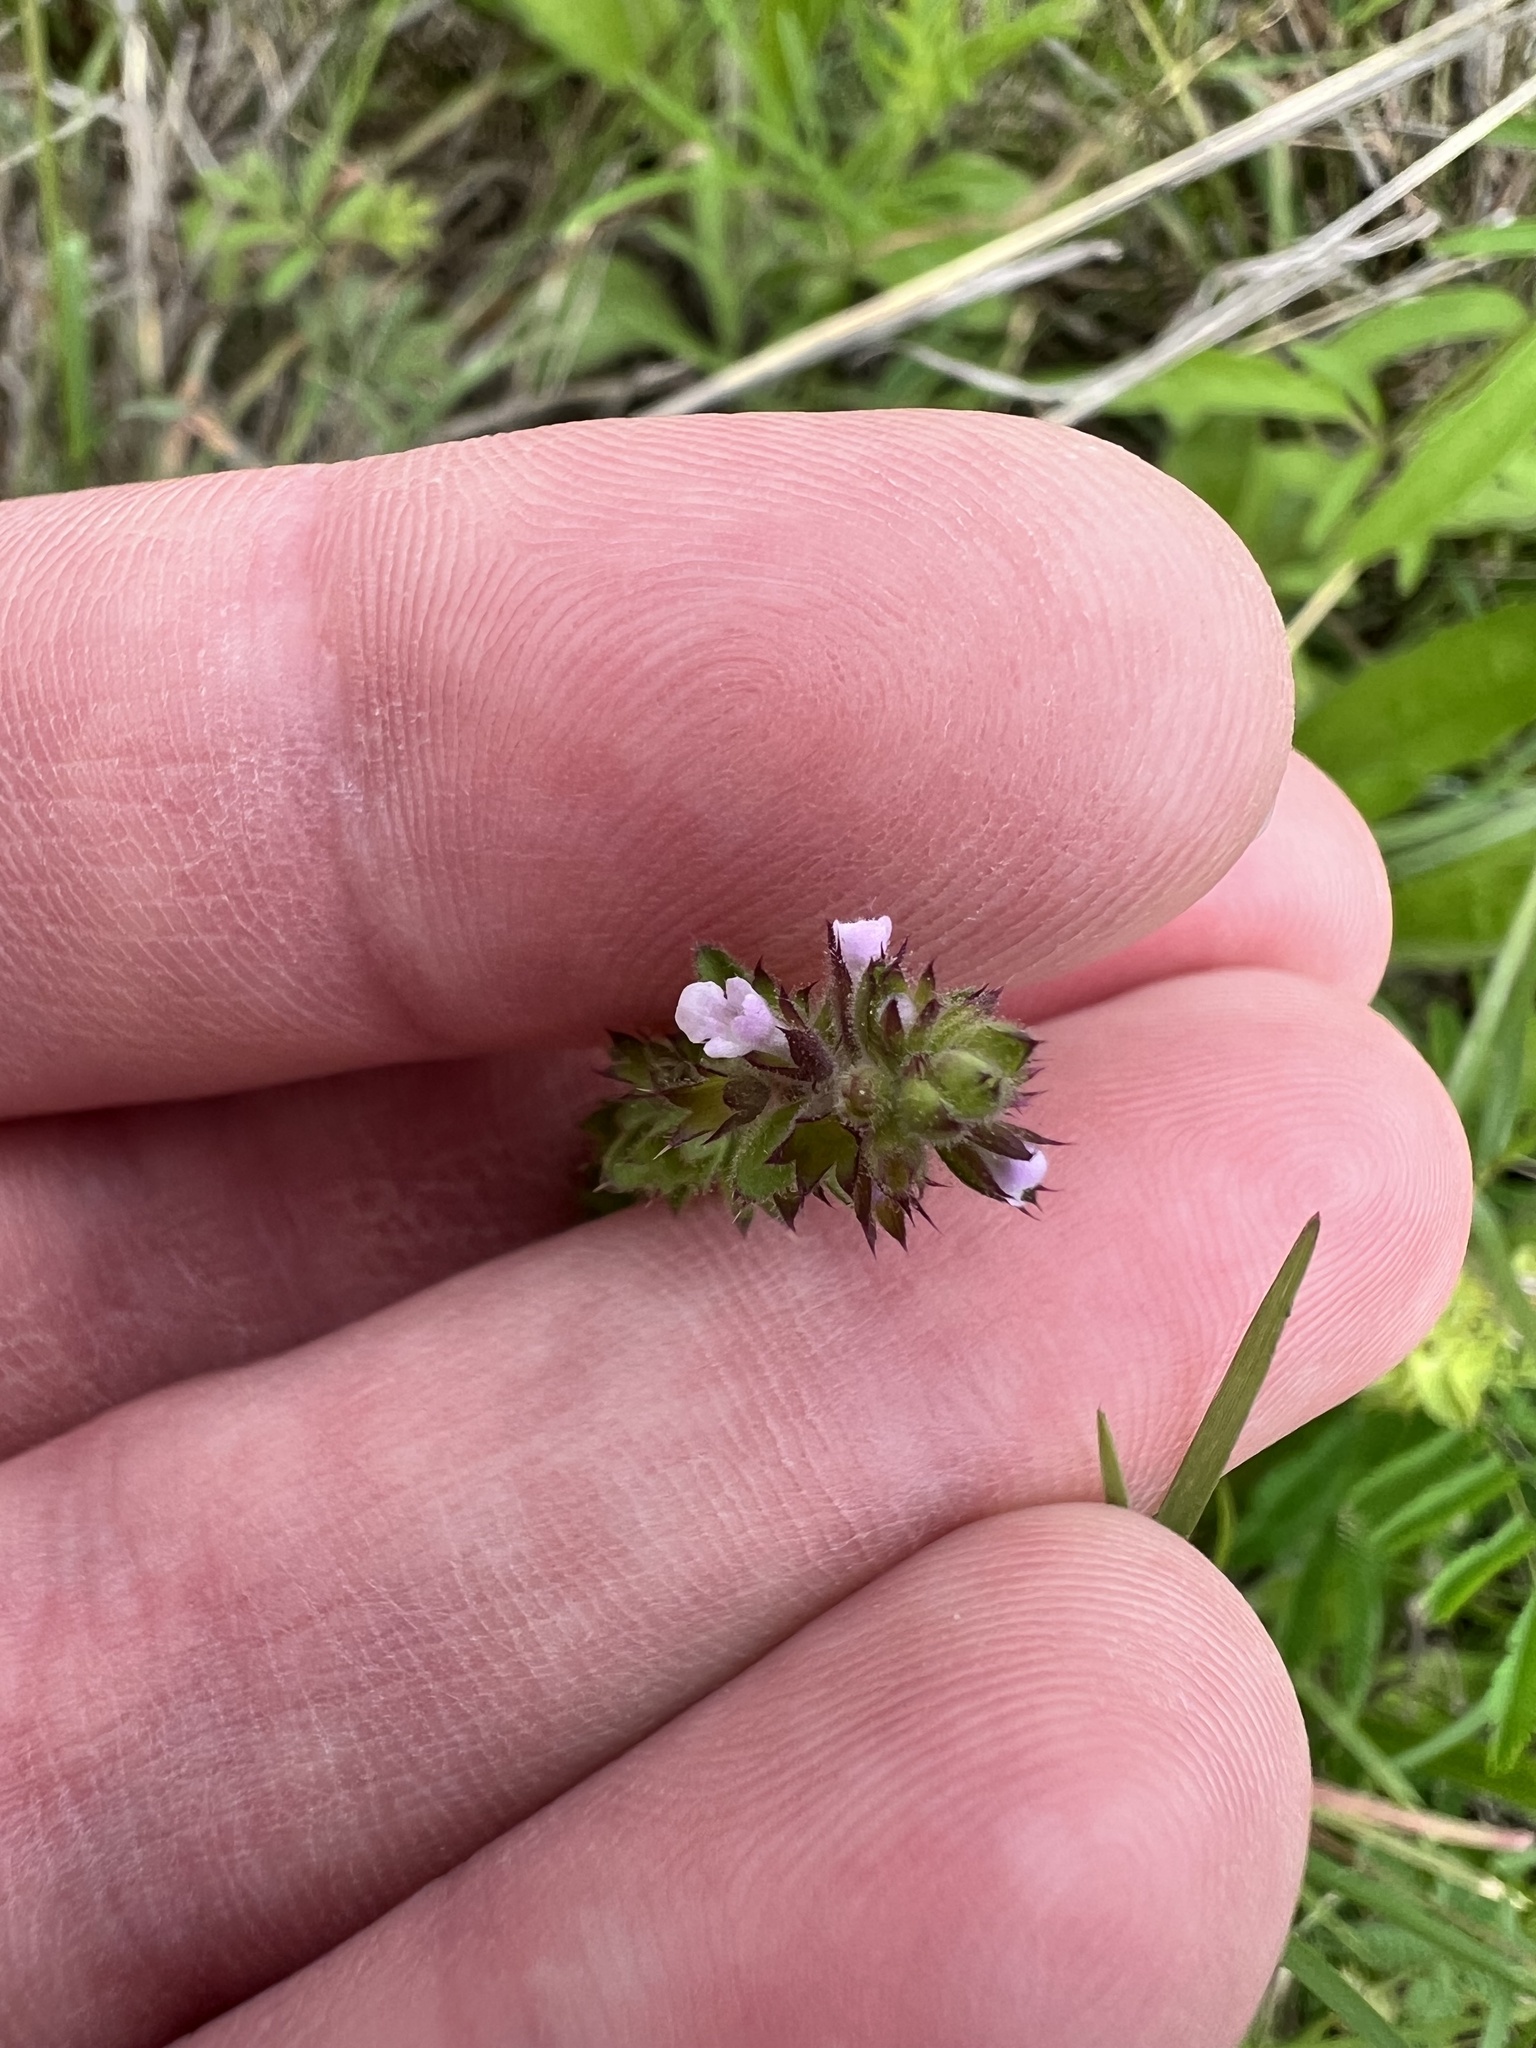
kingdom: Plantae
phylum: Tracheophyta
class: Magnoliopsida
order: Lamiales
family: Lamiaceae
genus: Stachys
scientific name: Stachys
